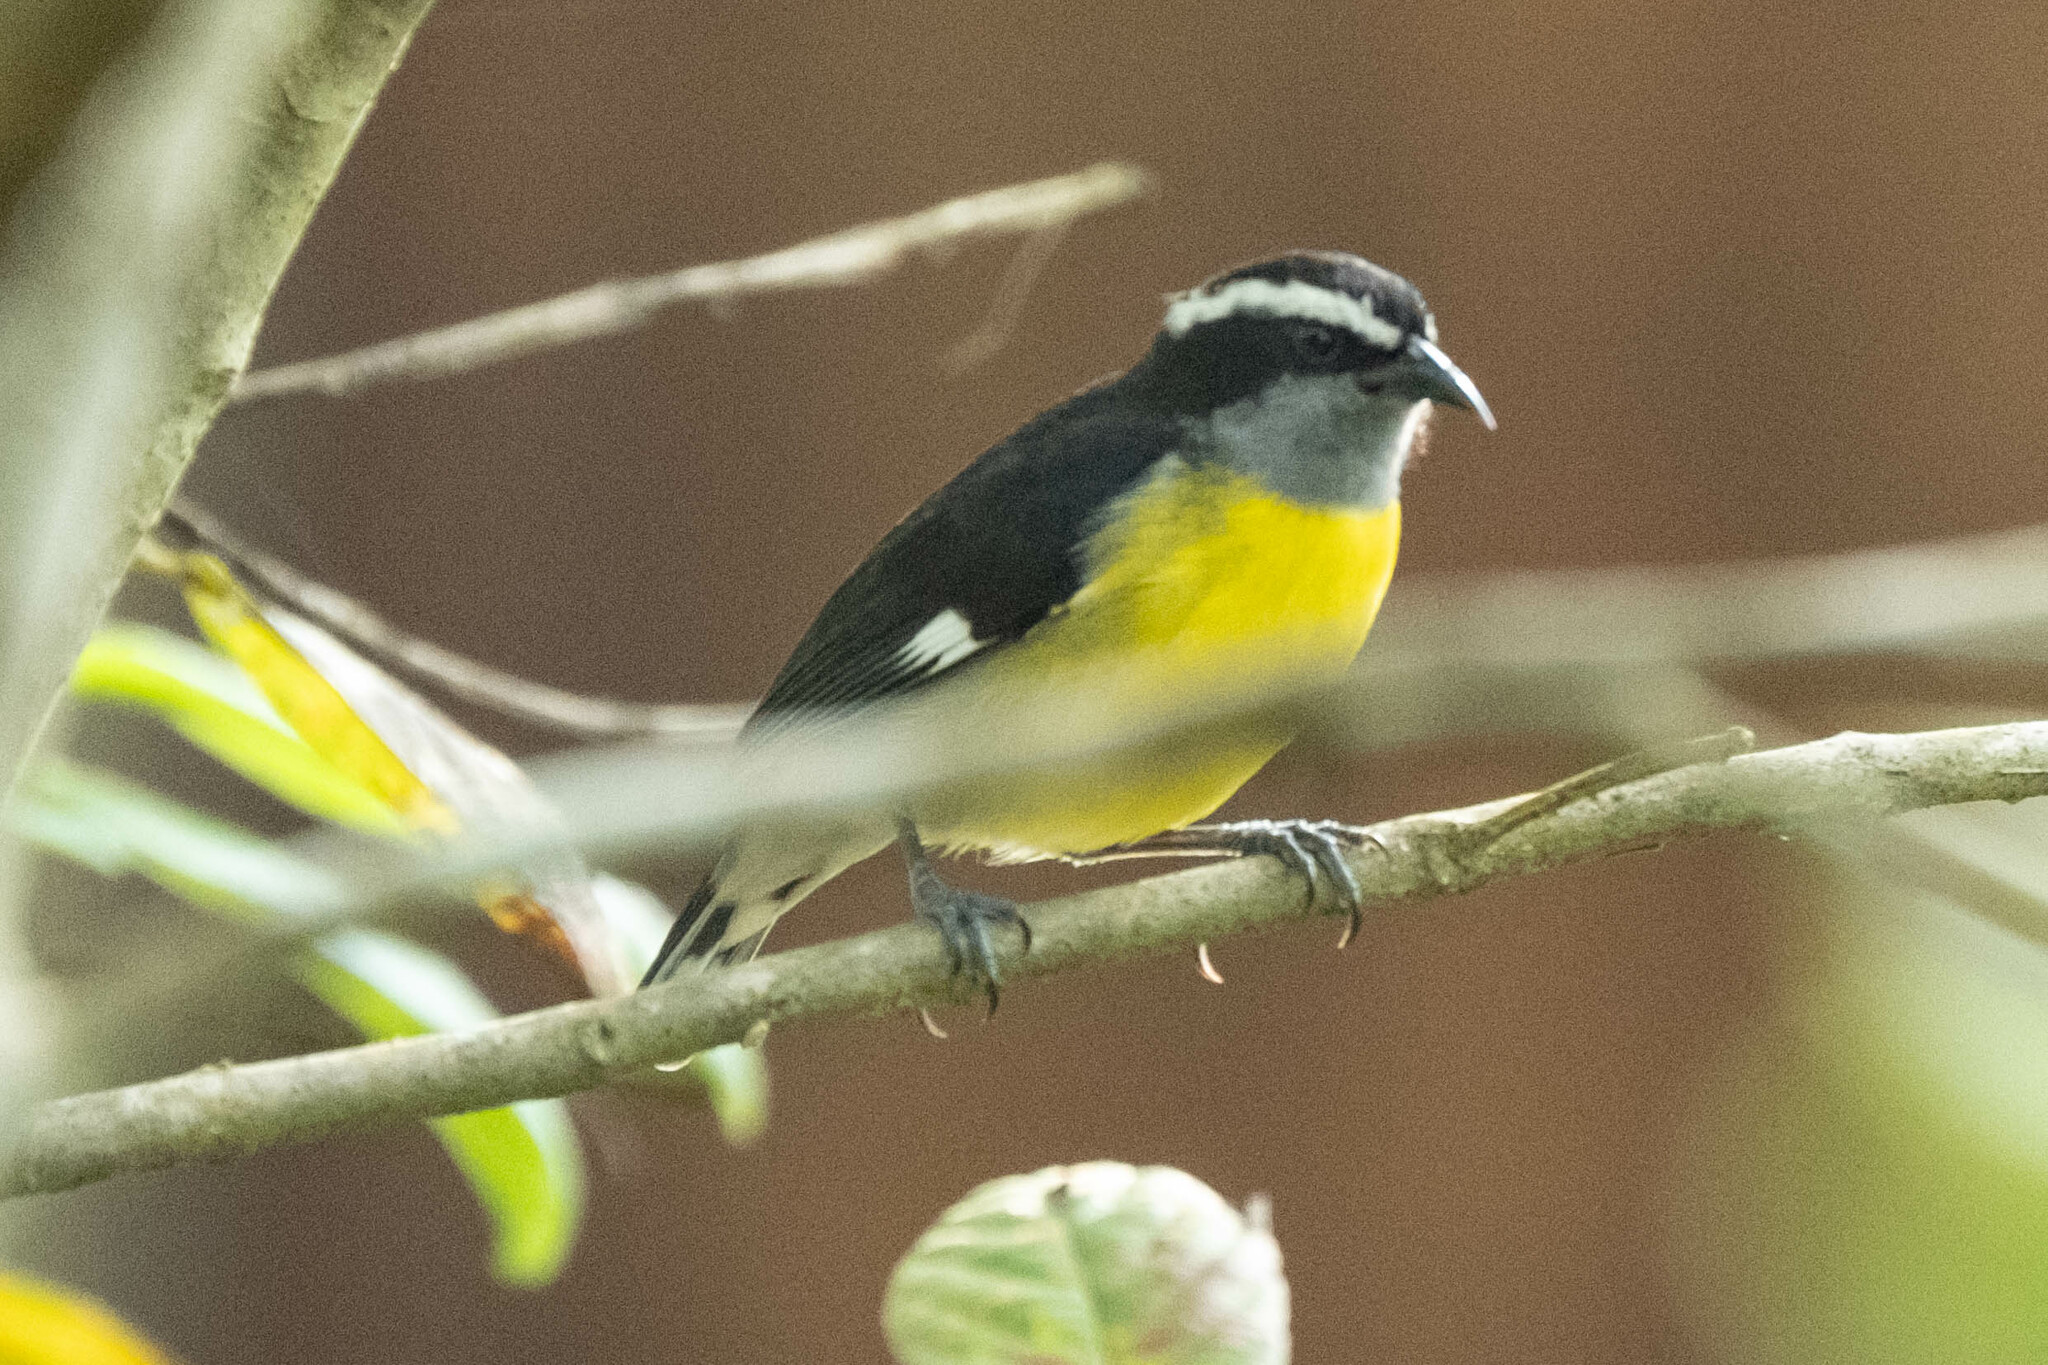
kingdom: Animalia
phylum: Chordata
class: Aves
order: Passeriformes
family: Thraupidae
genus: Coereba
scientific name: Coereba flaveola
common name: Bananaquit
